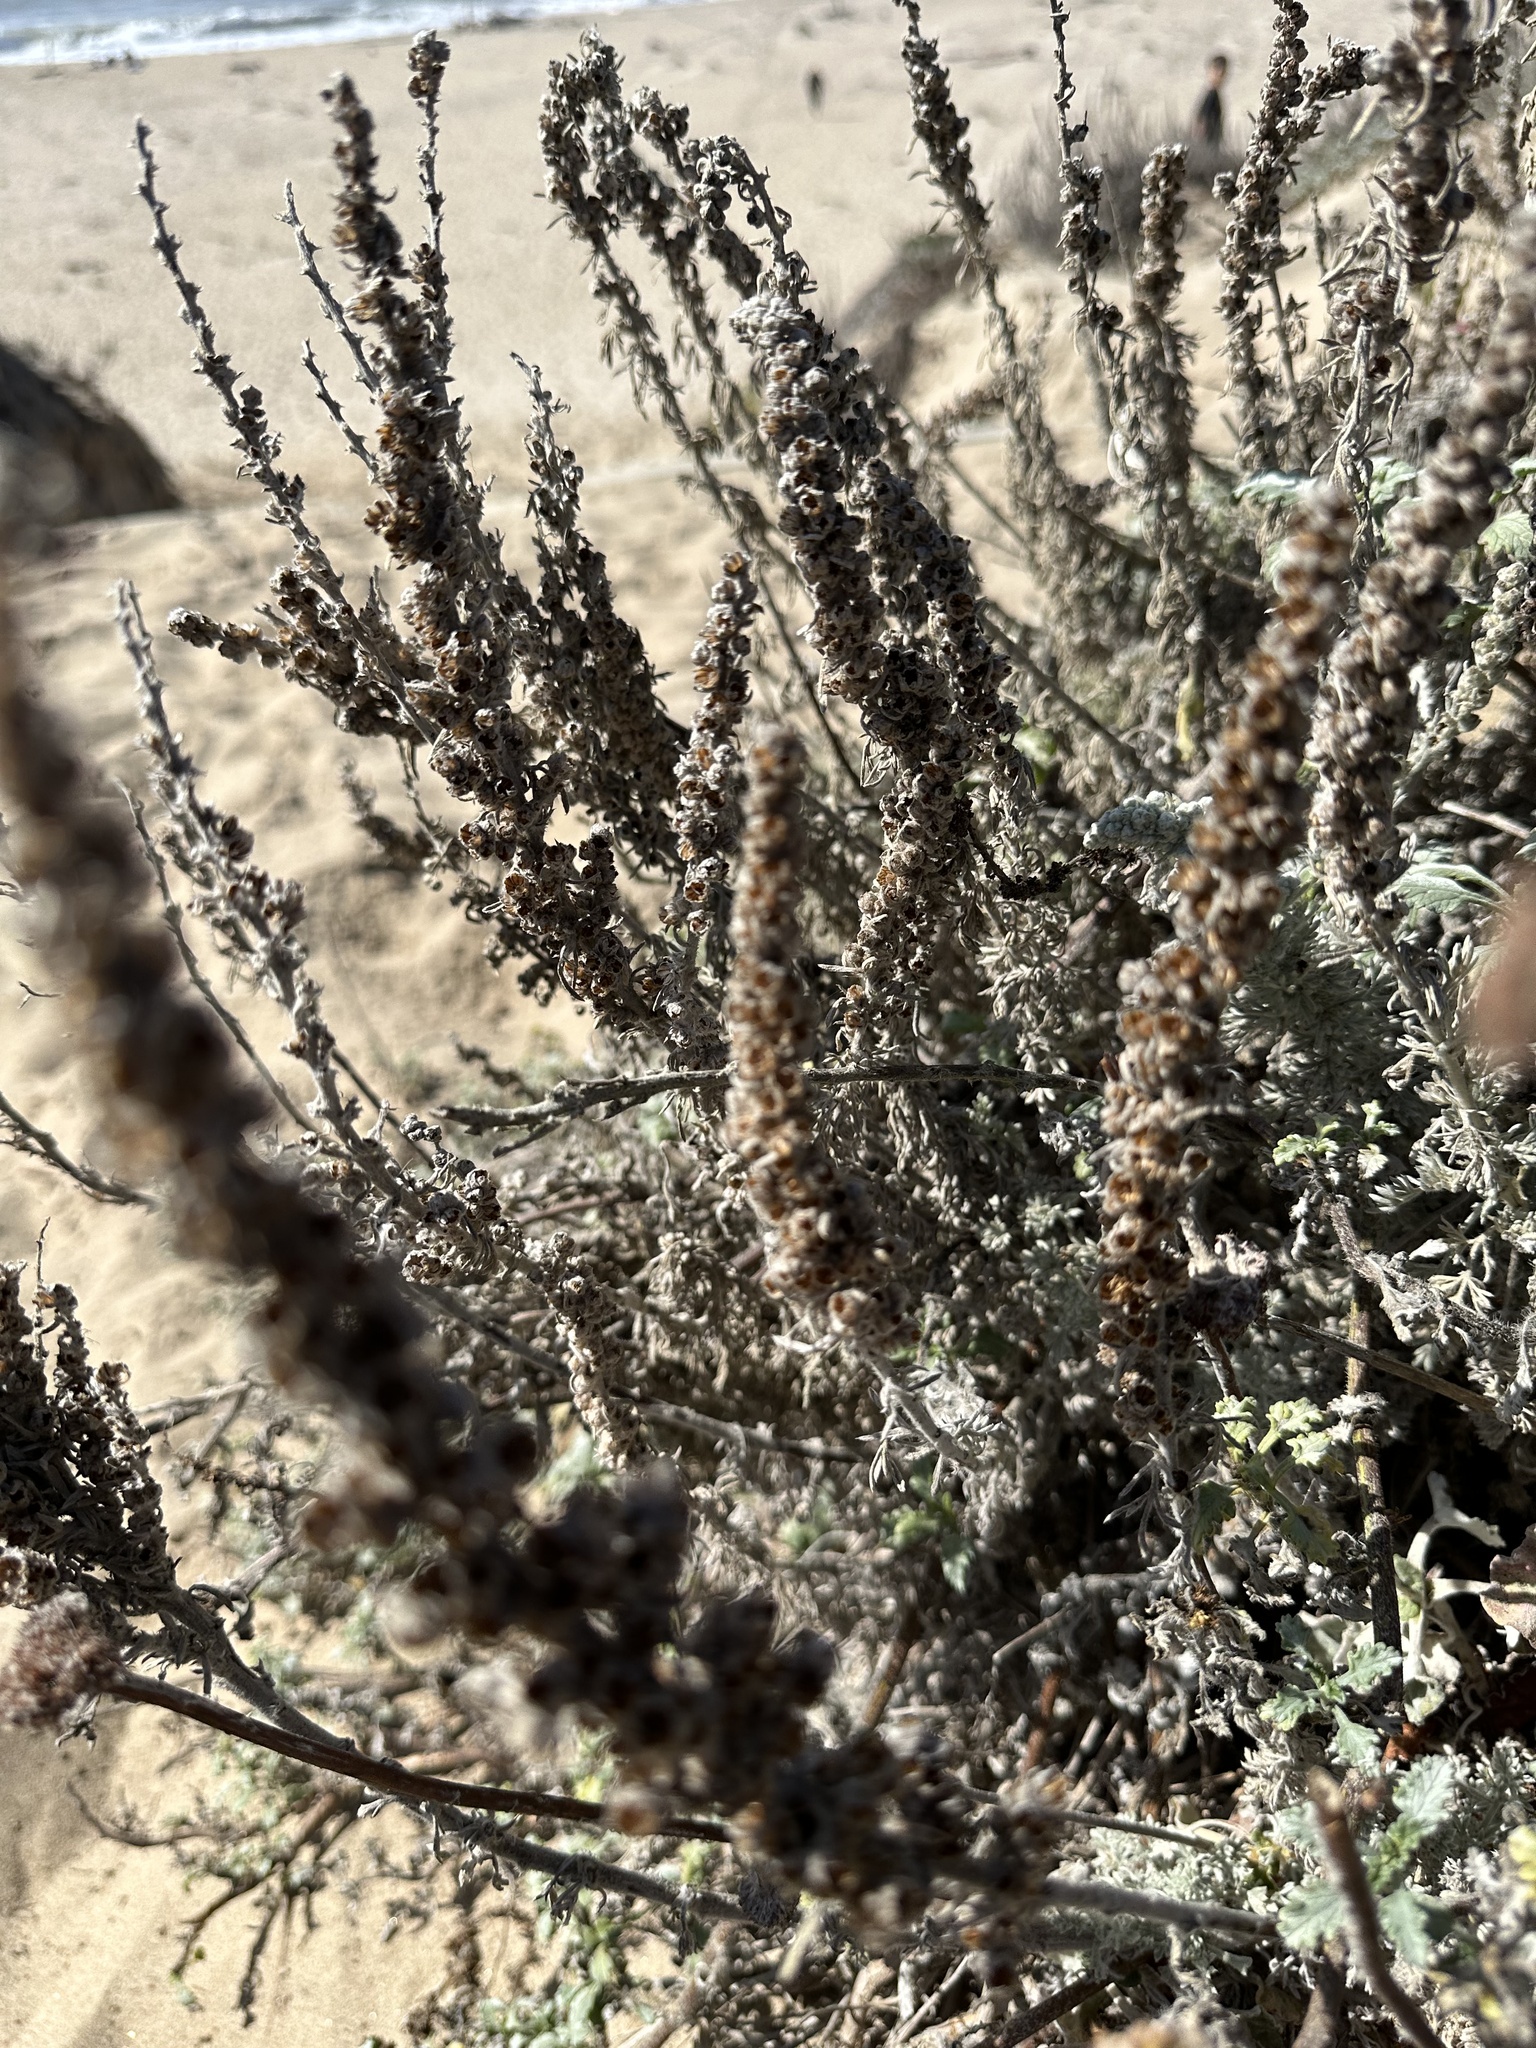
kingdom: Plantae
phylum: Tracheophyta
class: Magnoliopsida
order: Asterales
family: Asteraceae
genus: Artemisia
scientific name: Artemisia pycnocephala
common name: Coastal sagewort
